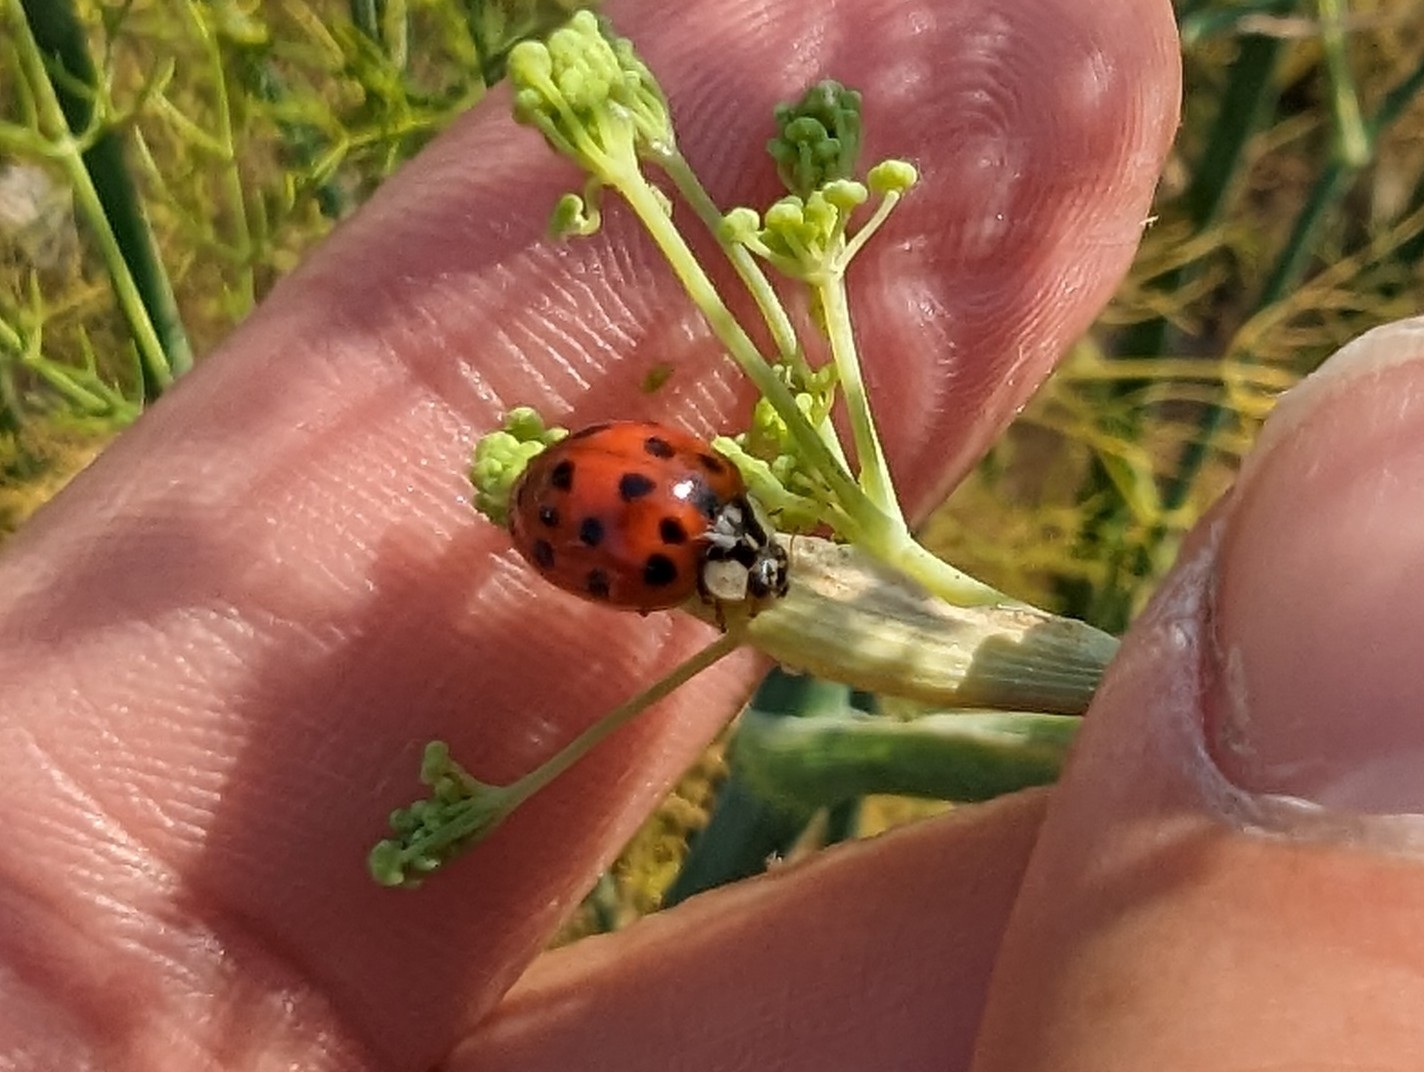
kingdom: Animalia
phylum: Arthropoda
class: Insecta
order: Coleoptera
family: Coccinellidae
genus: Harmonia
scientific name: Harmonia axyridis
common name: Harlequin ladybird
